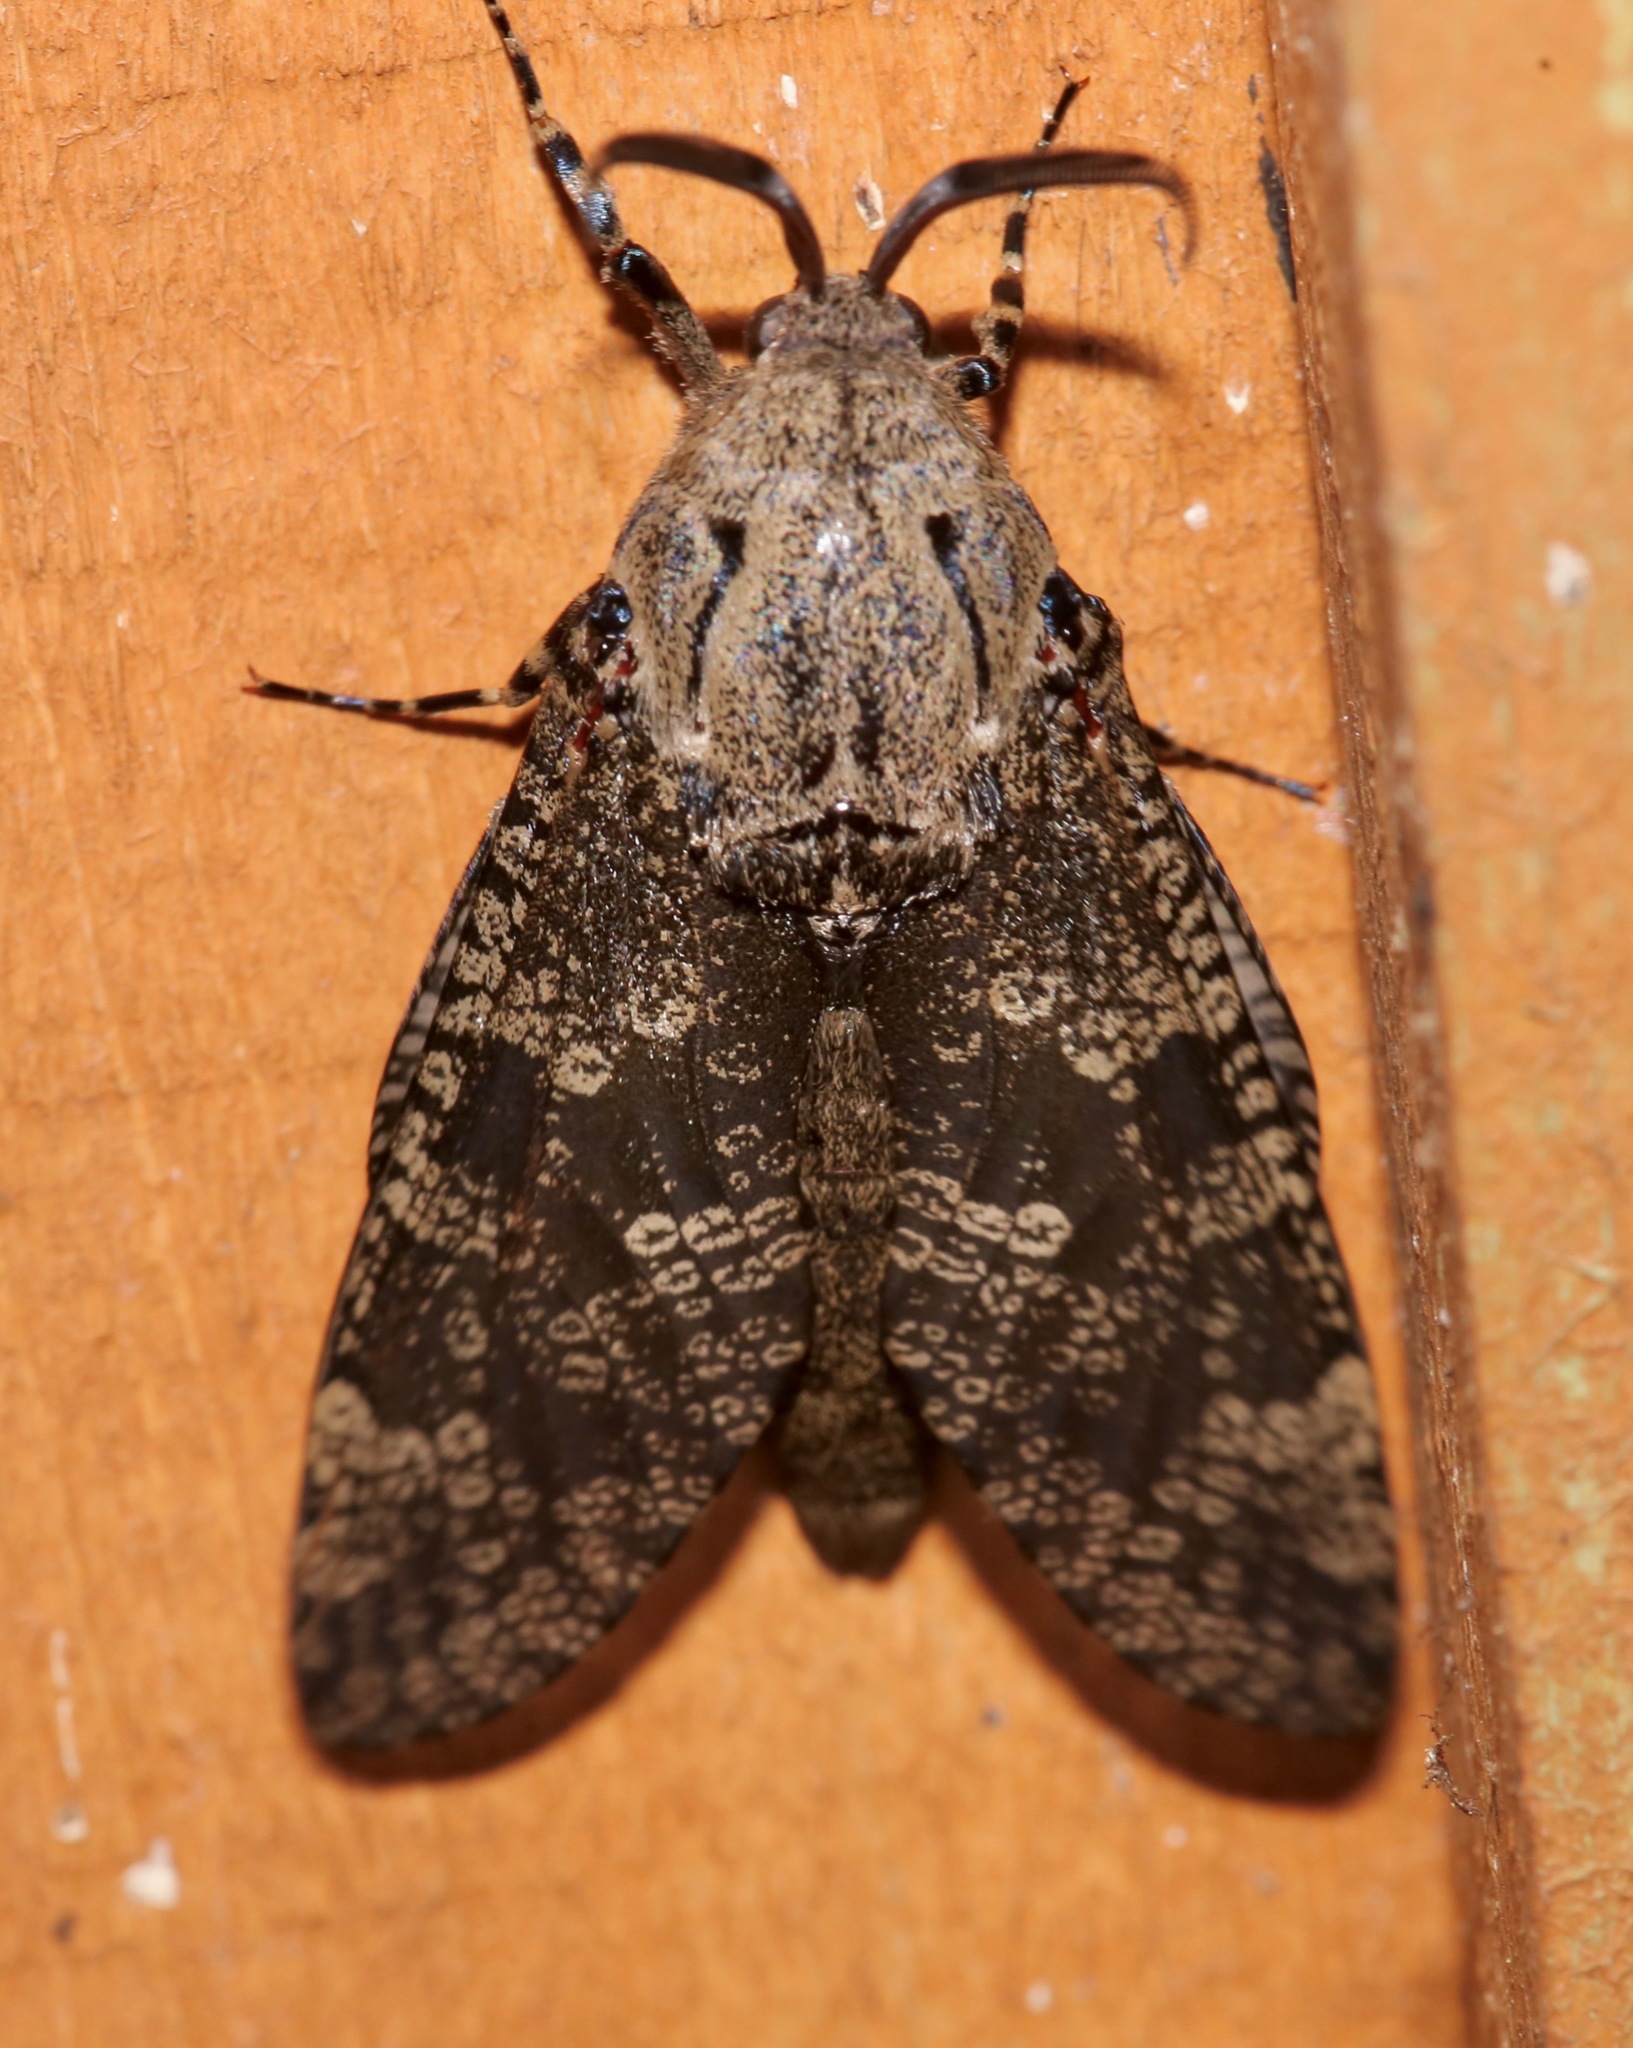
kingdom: Animalia
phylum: Arthropoda
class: Insecta
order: Lepidoptera
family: Cossidae
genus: Prionoxystus
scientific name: Prionoxystus robiniae
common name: Carpenterworm
